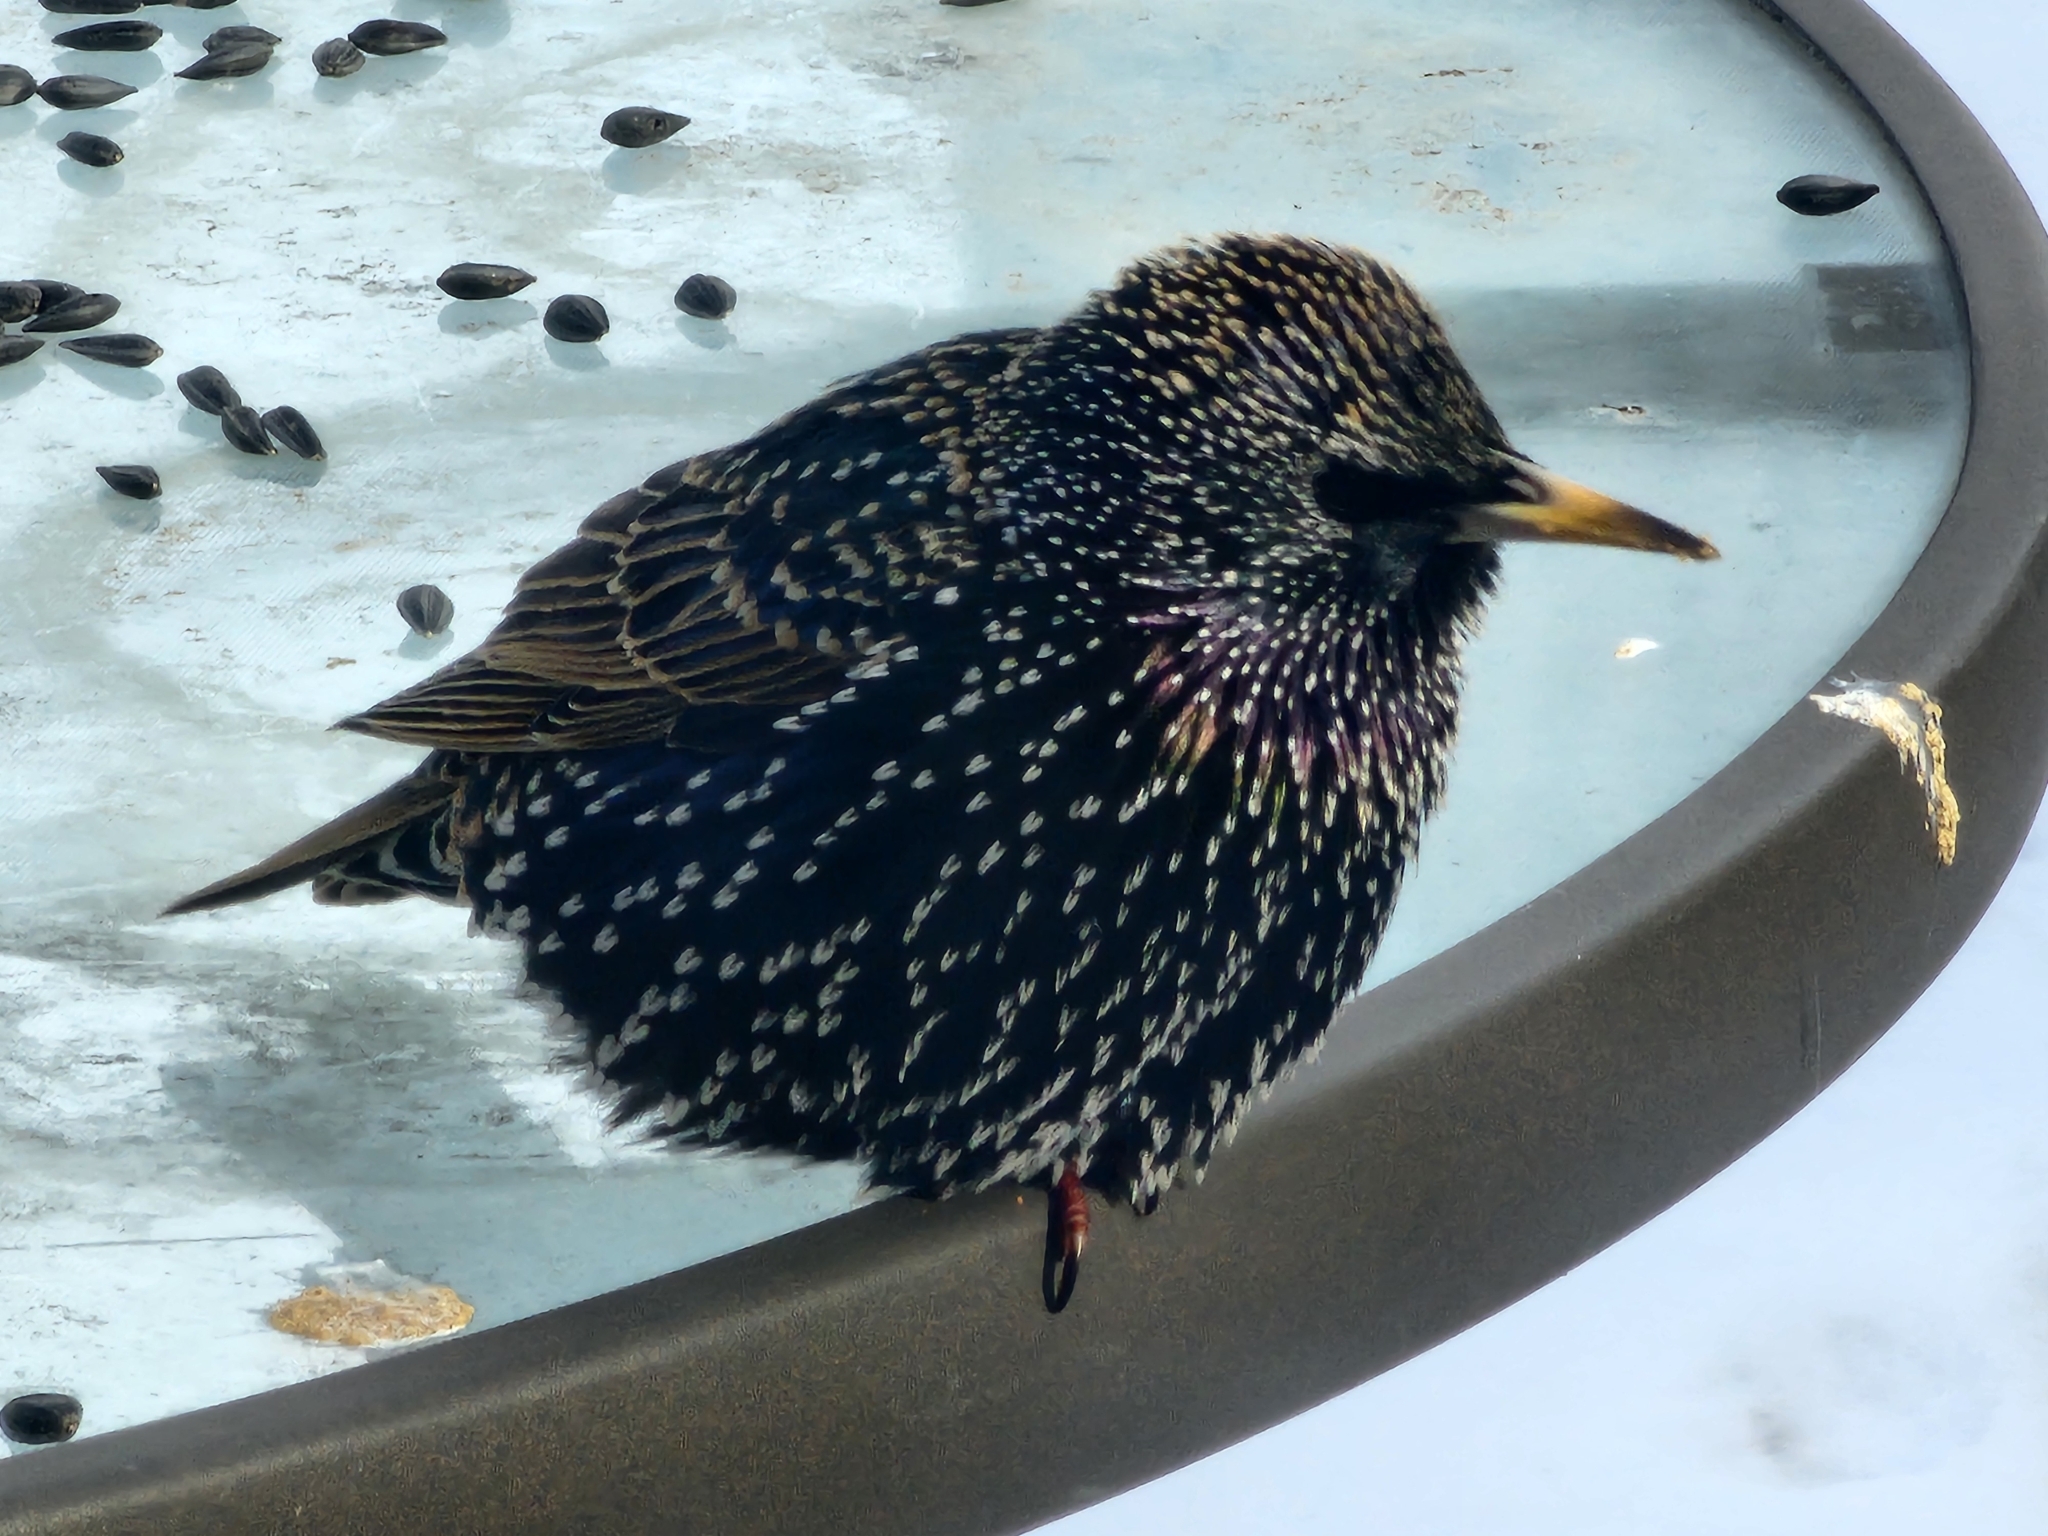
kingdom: Animalia
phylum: Chordata
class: Aves
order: Passeriformes
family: Sturnidae
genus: Sturnus
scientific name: Sturnus vulgaris
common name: Common starling
